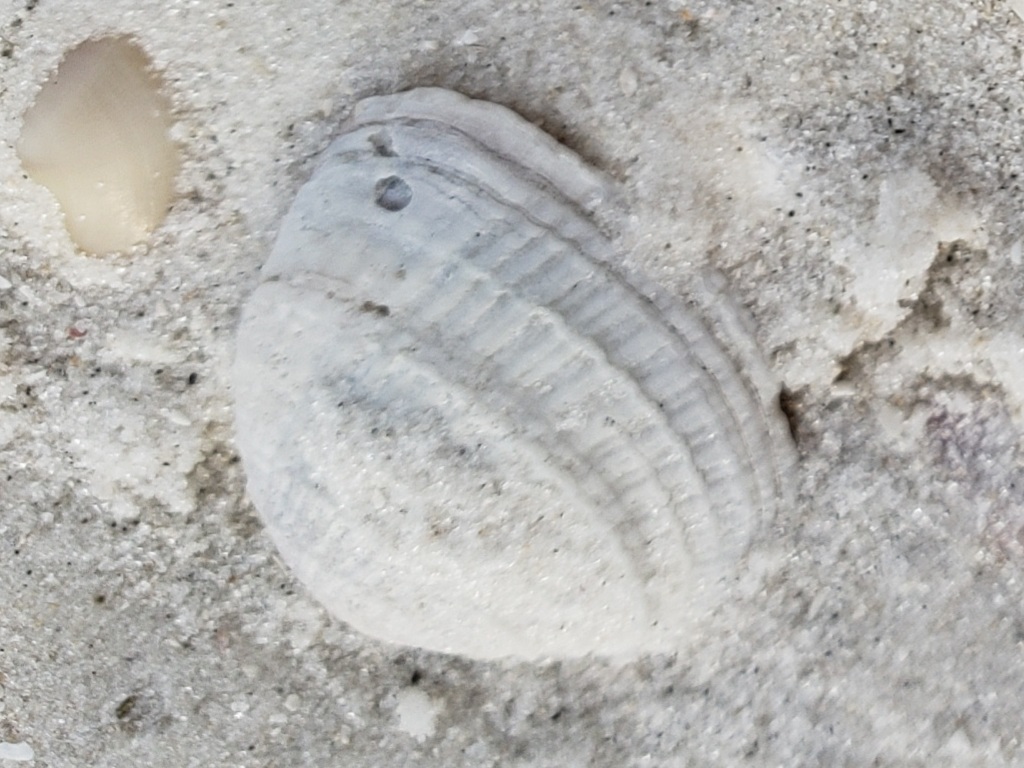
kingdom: Animalia
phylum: Mollusca
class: Bivalvia
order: Venerida
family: Veneridae
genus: Chione
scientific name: Chione elevata
